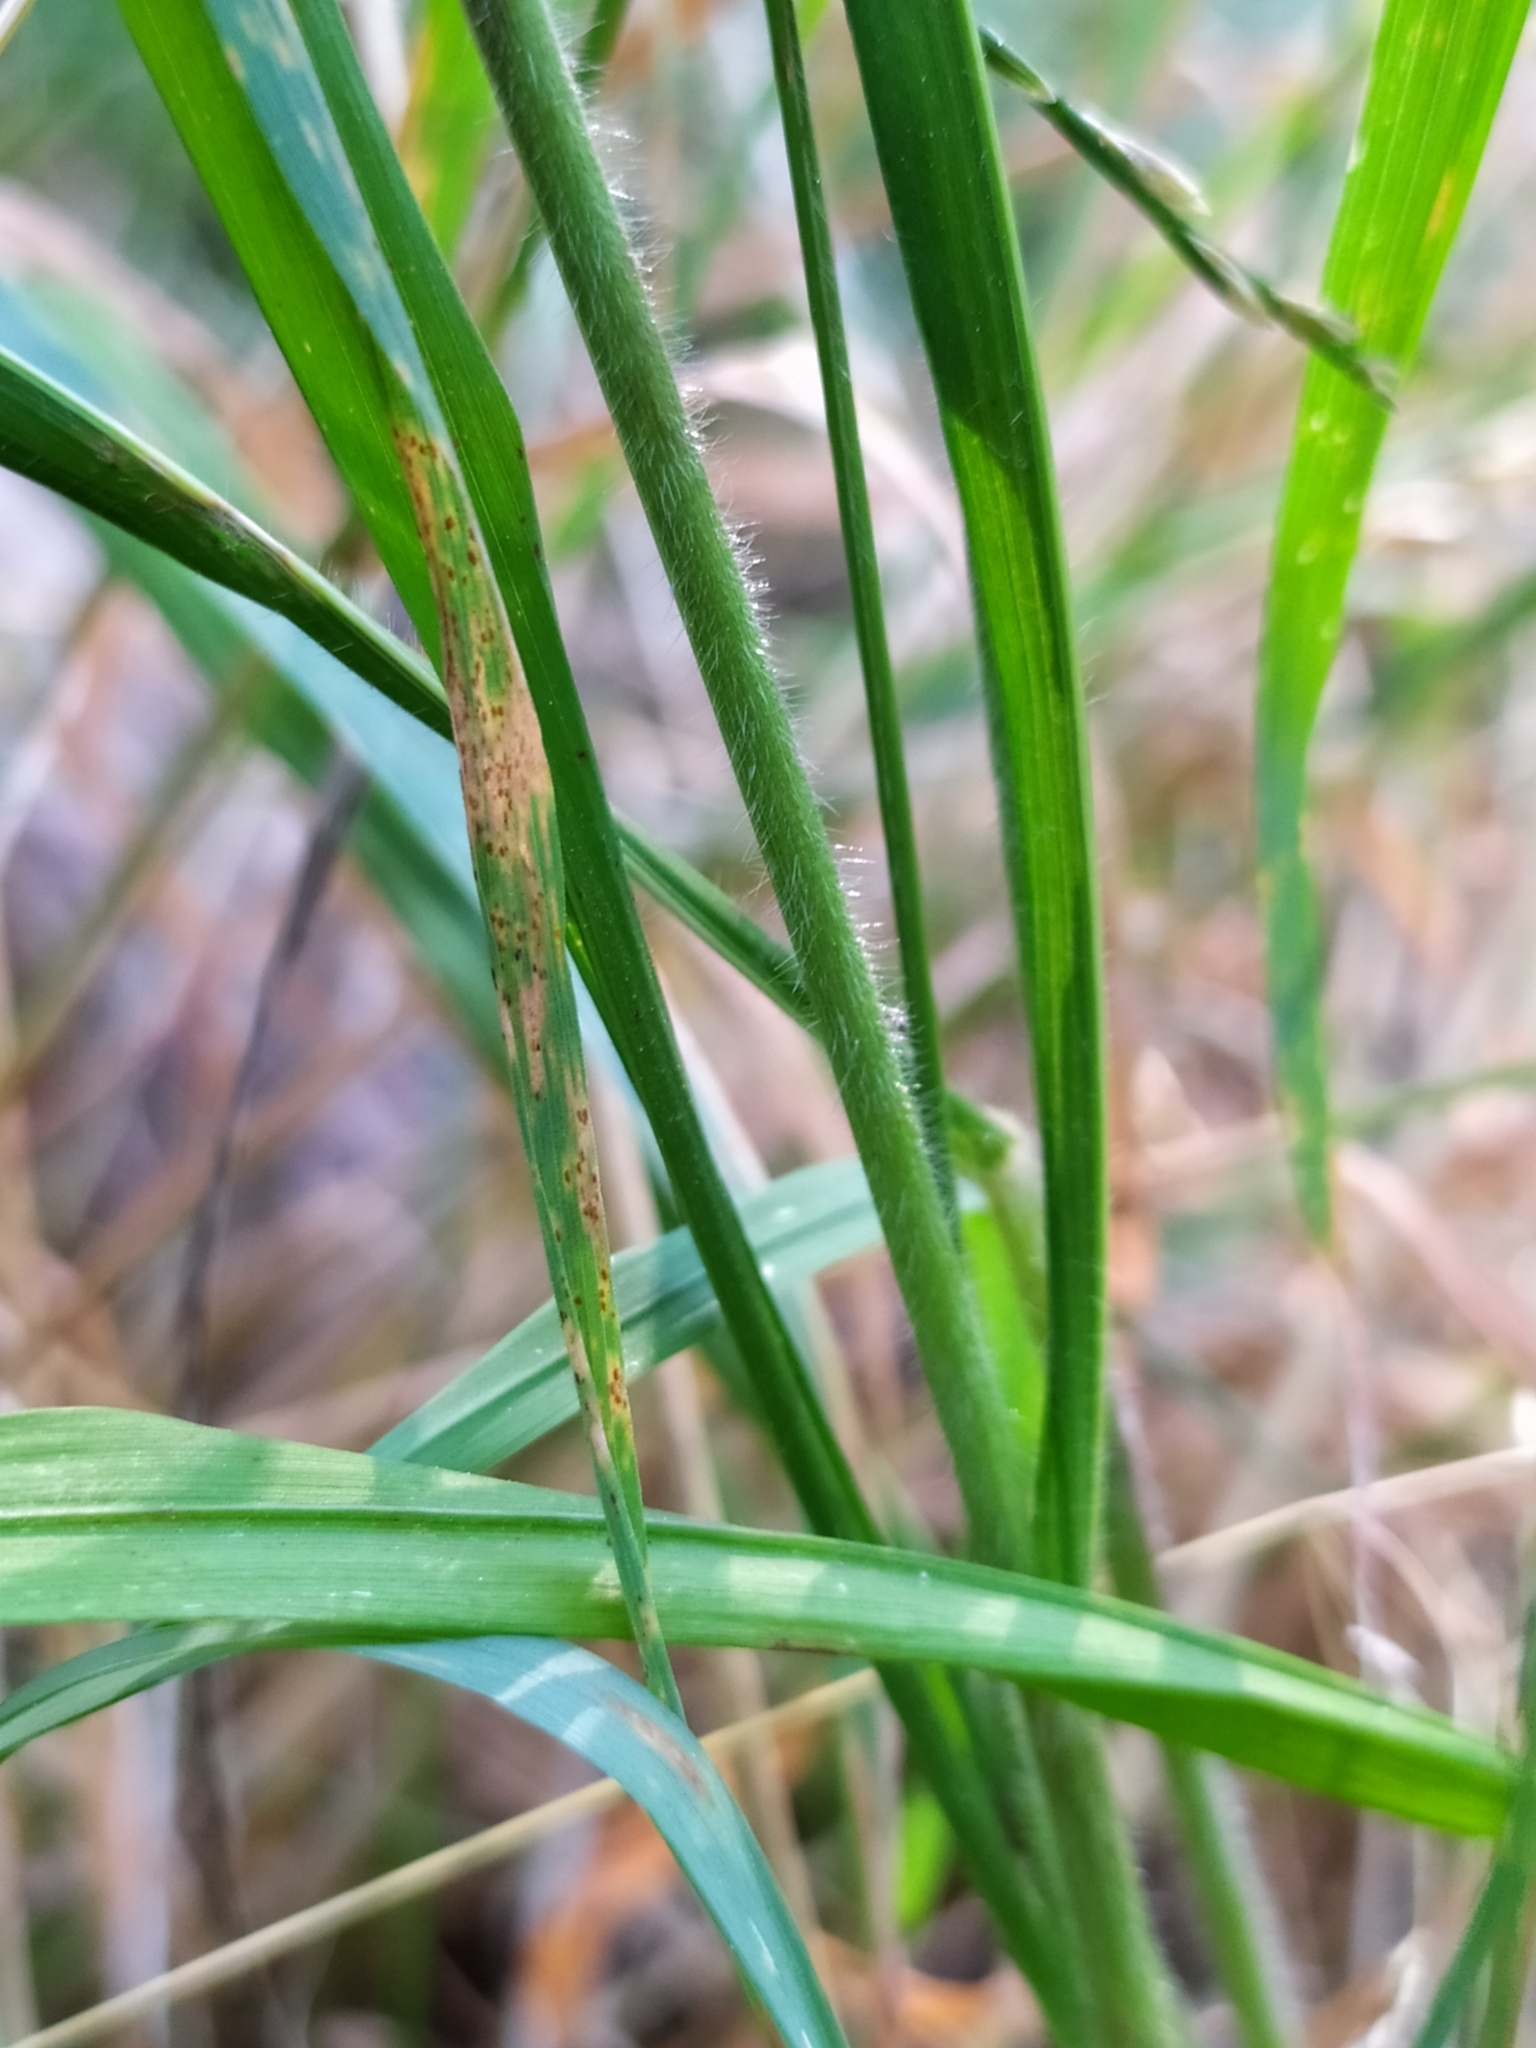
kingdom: Plantae
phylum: Tracheophyta
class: Liliopsida
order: Poales
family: Poaceae
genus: Brachypodium
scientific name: Brachypodium sylvaticum
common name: False-brome
